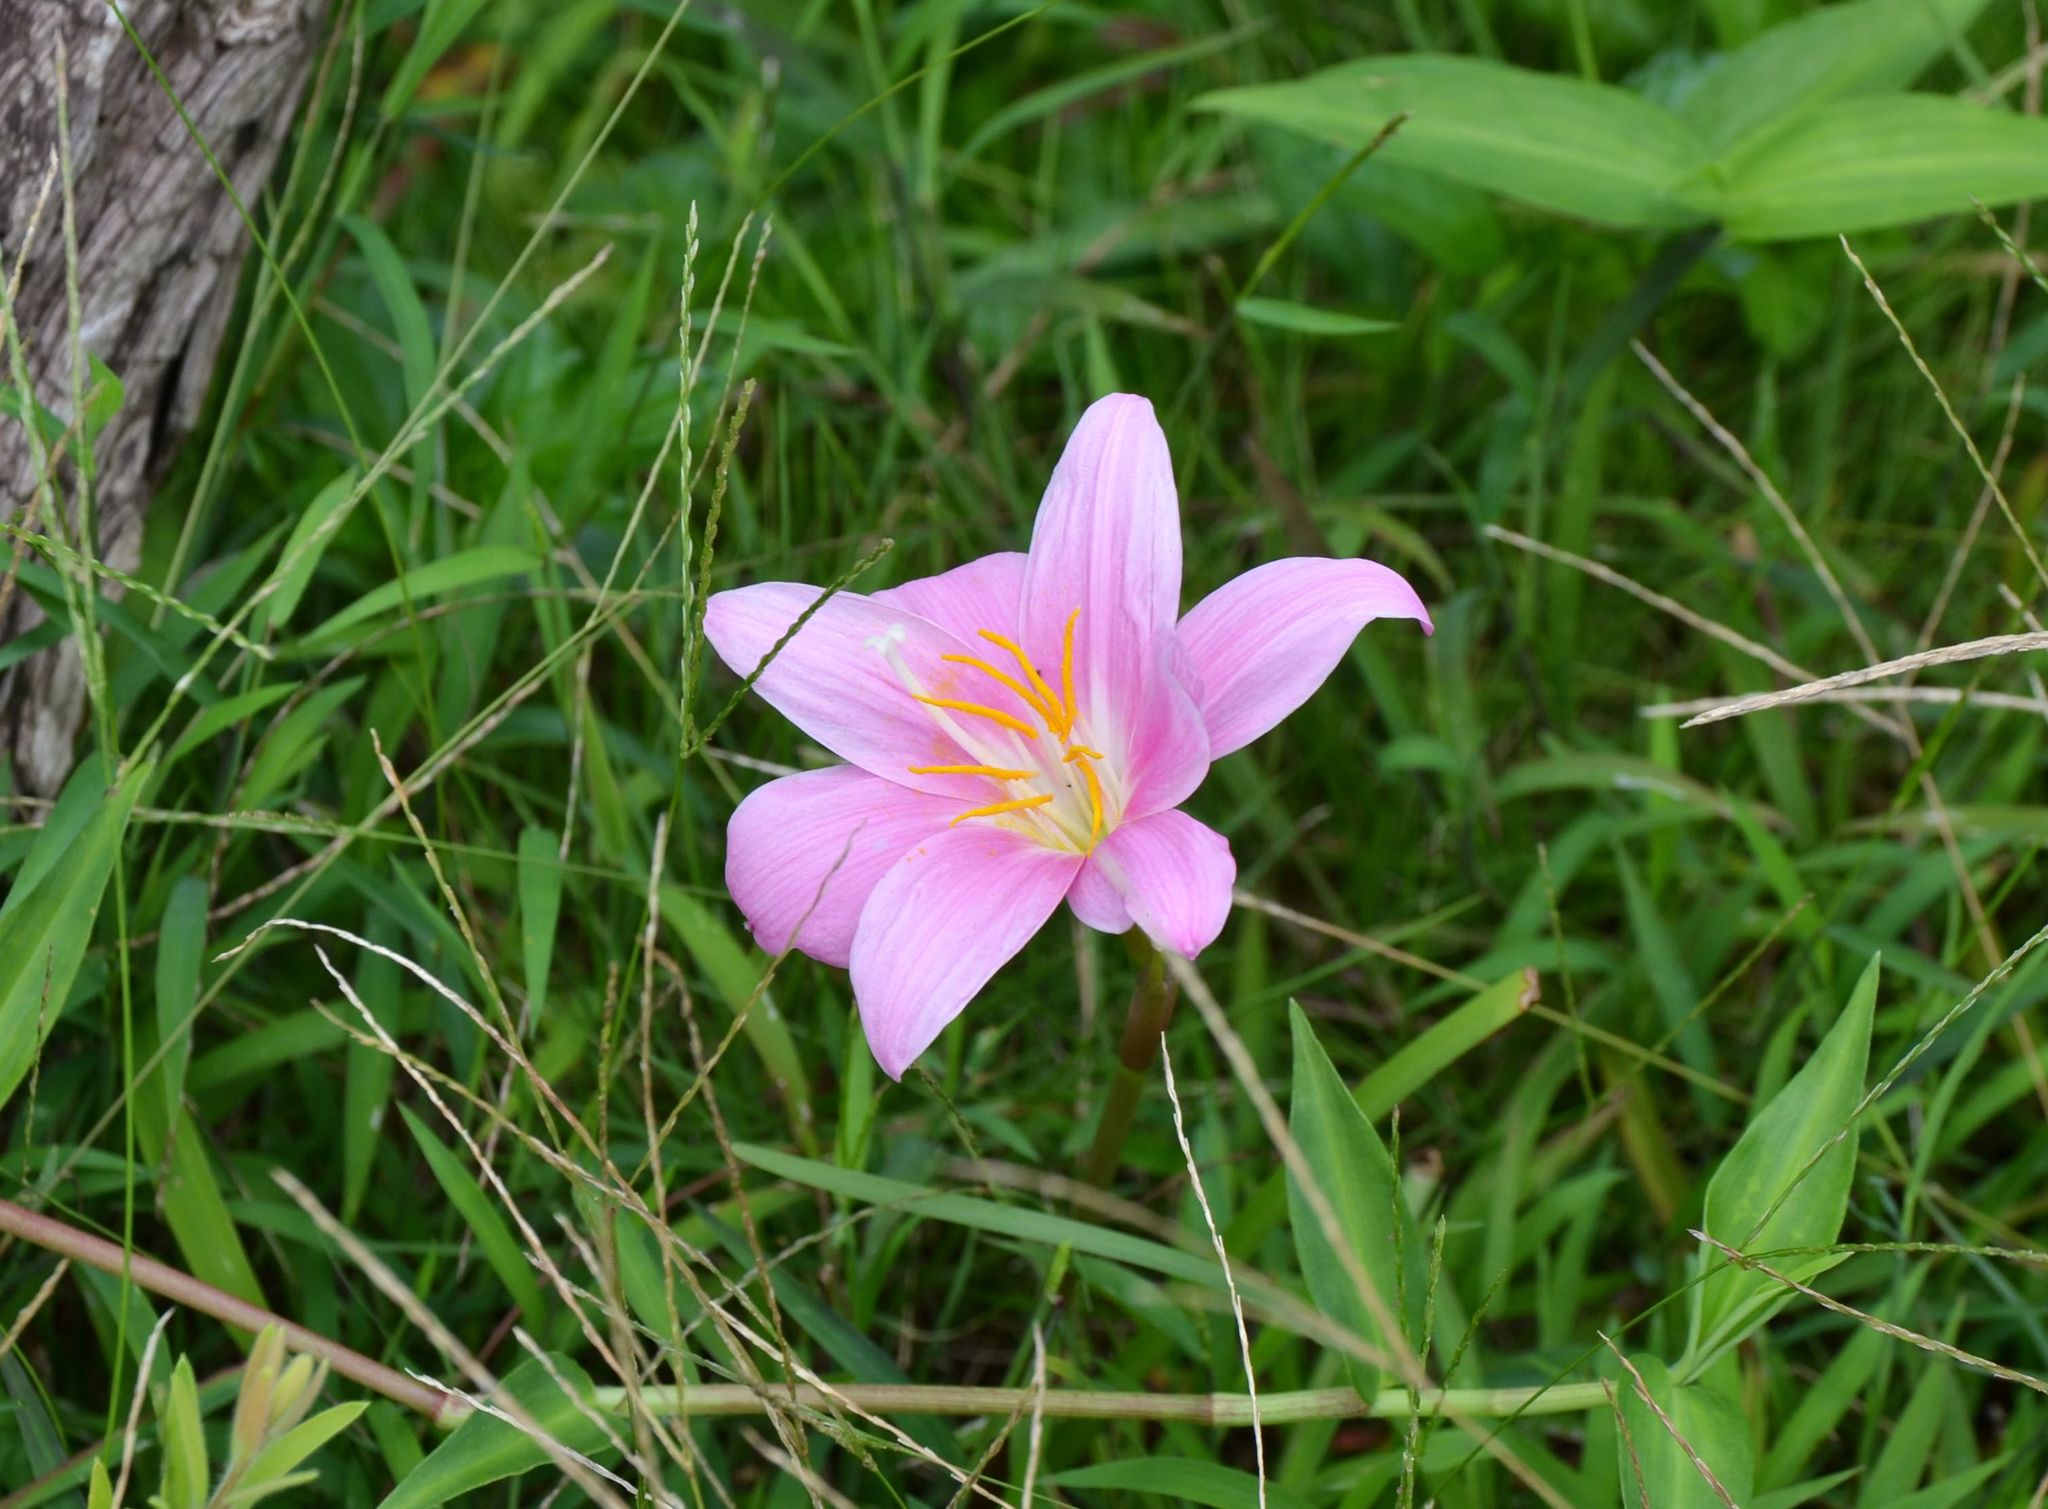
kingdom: Plantae
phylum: Tracheophyta
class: Liliopsida
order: Asparagales
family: Amaryllidaceae
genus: Zephyranthes
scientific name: Zephyranthes carinata
